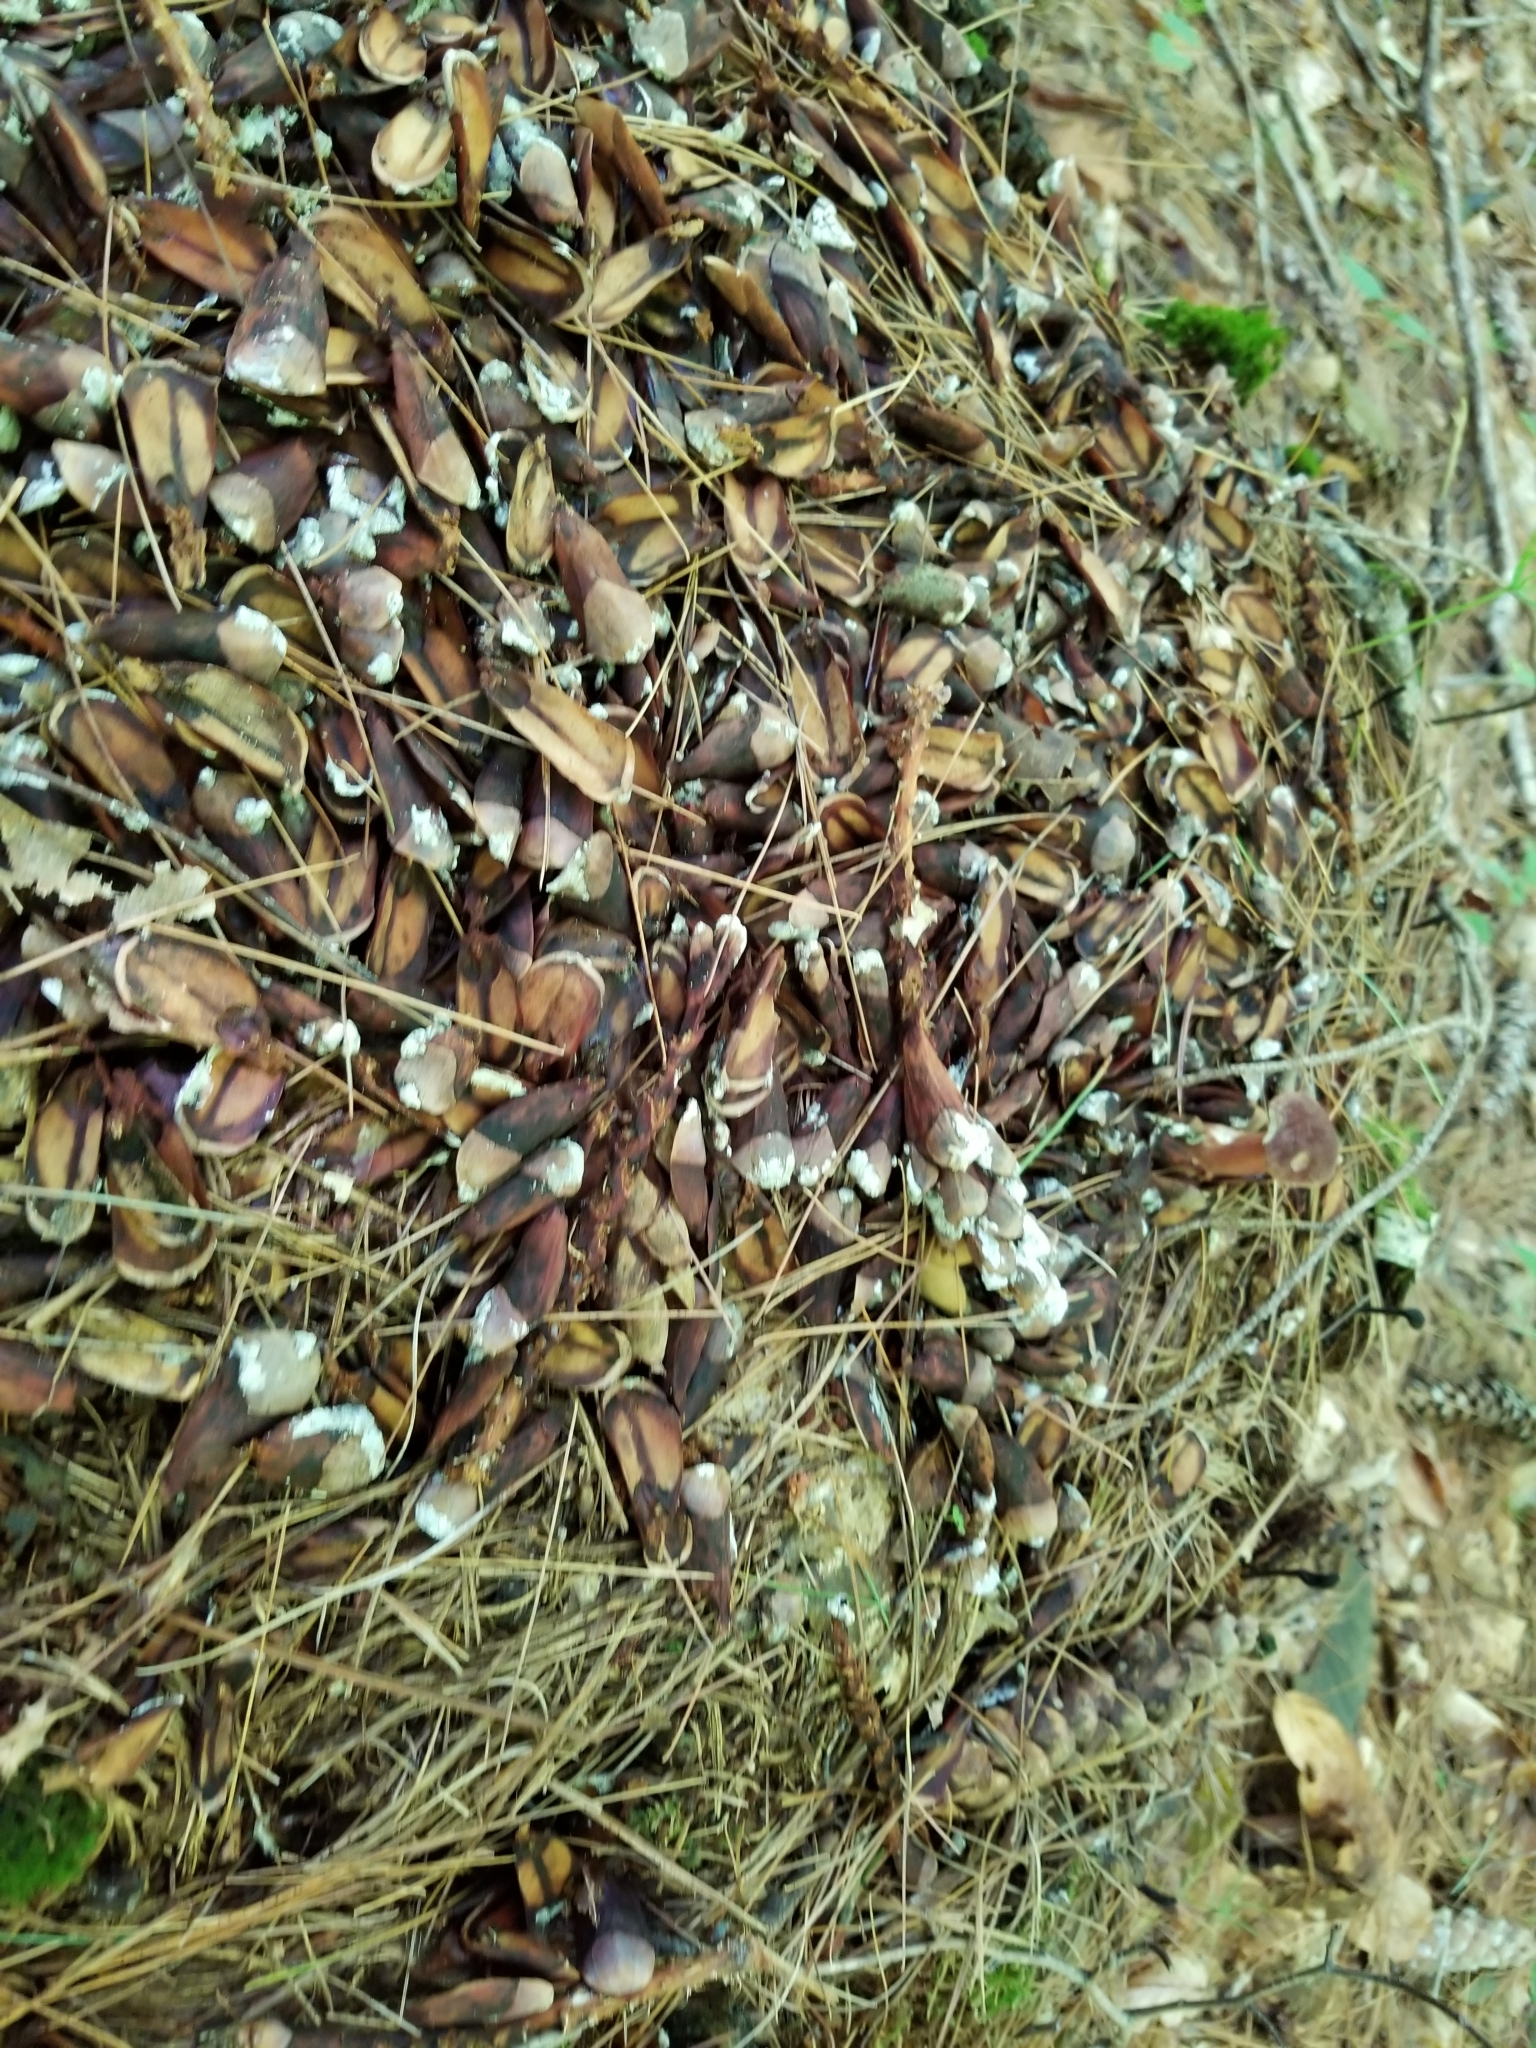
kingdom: Animalia
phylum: Chordata
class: Mammalia
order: Rodentia
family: Sciuridae
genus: Tamiasciurus
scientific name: Tamiasciurus hudsonicus
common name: Red squirrel
